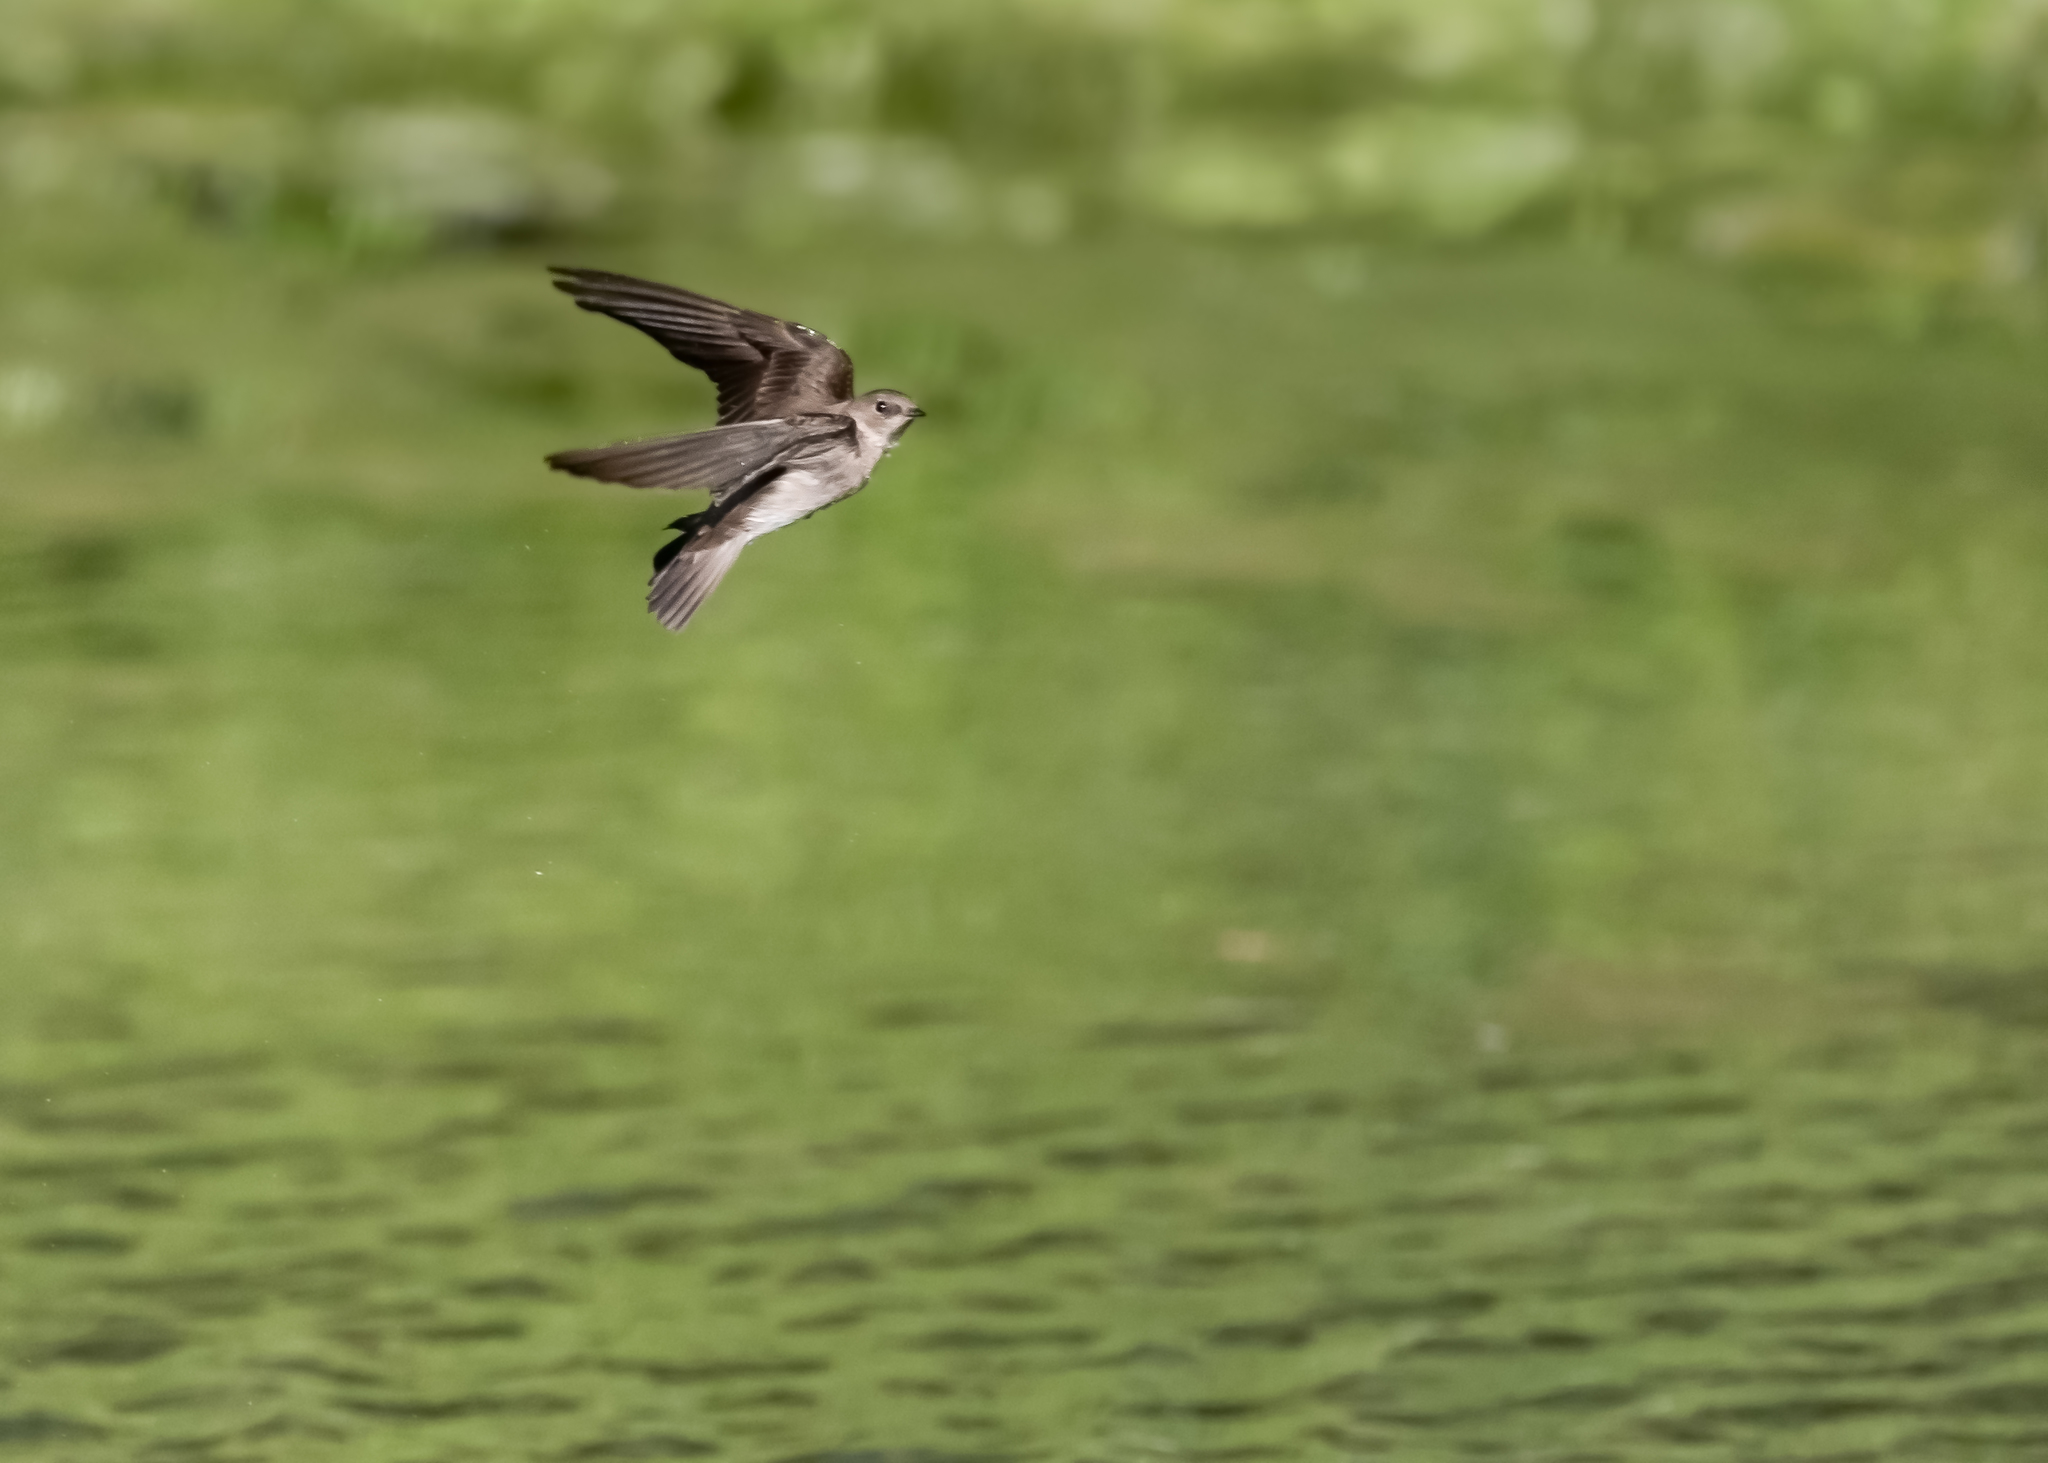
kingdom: Animalia
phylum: Chordata
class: Aves
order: Passeriformes
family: Hirundinidae
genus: Stelgidopteryx
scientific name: Stelgidopteryx serripennis
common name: Northern rough-winged swallow
